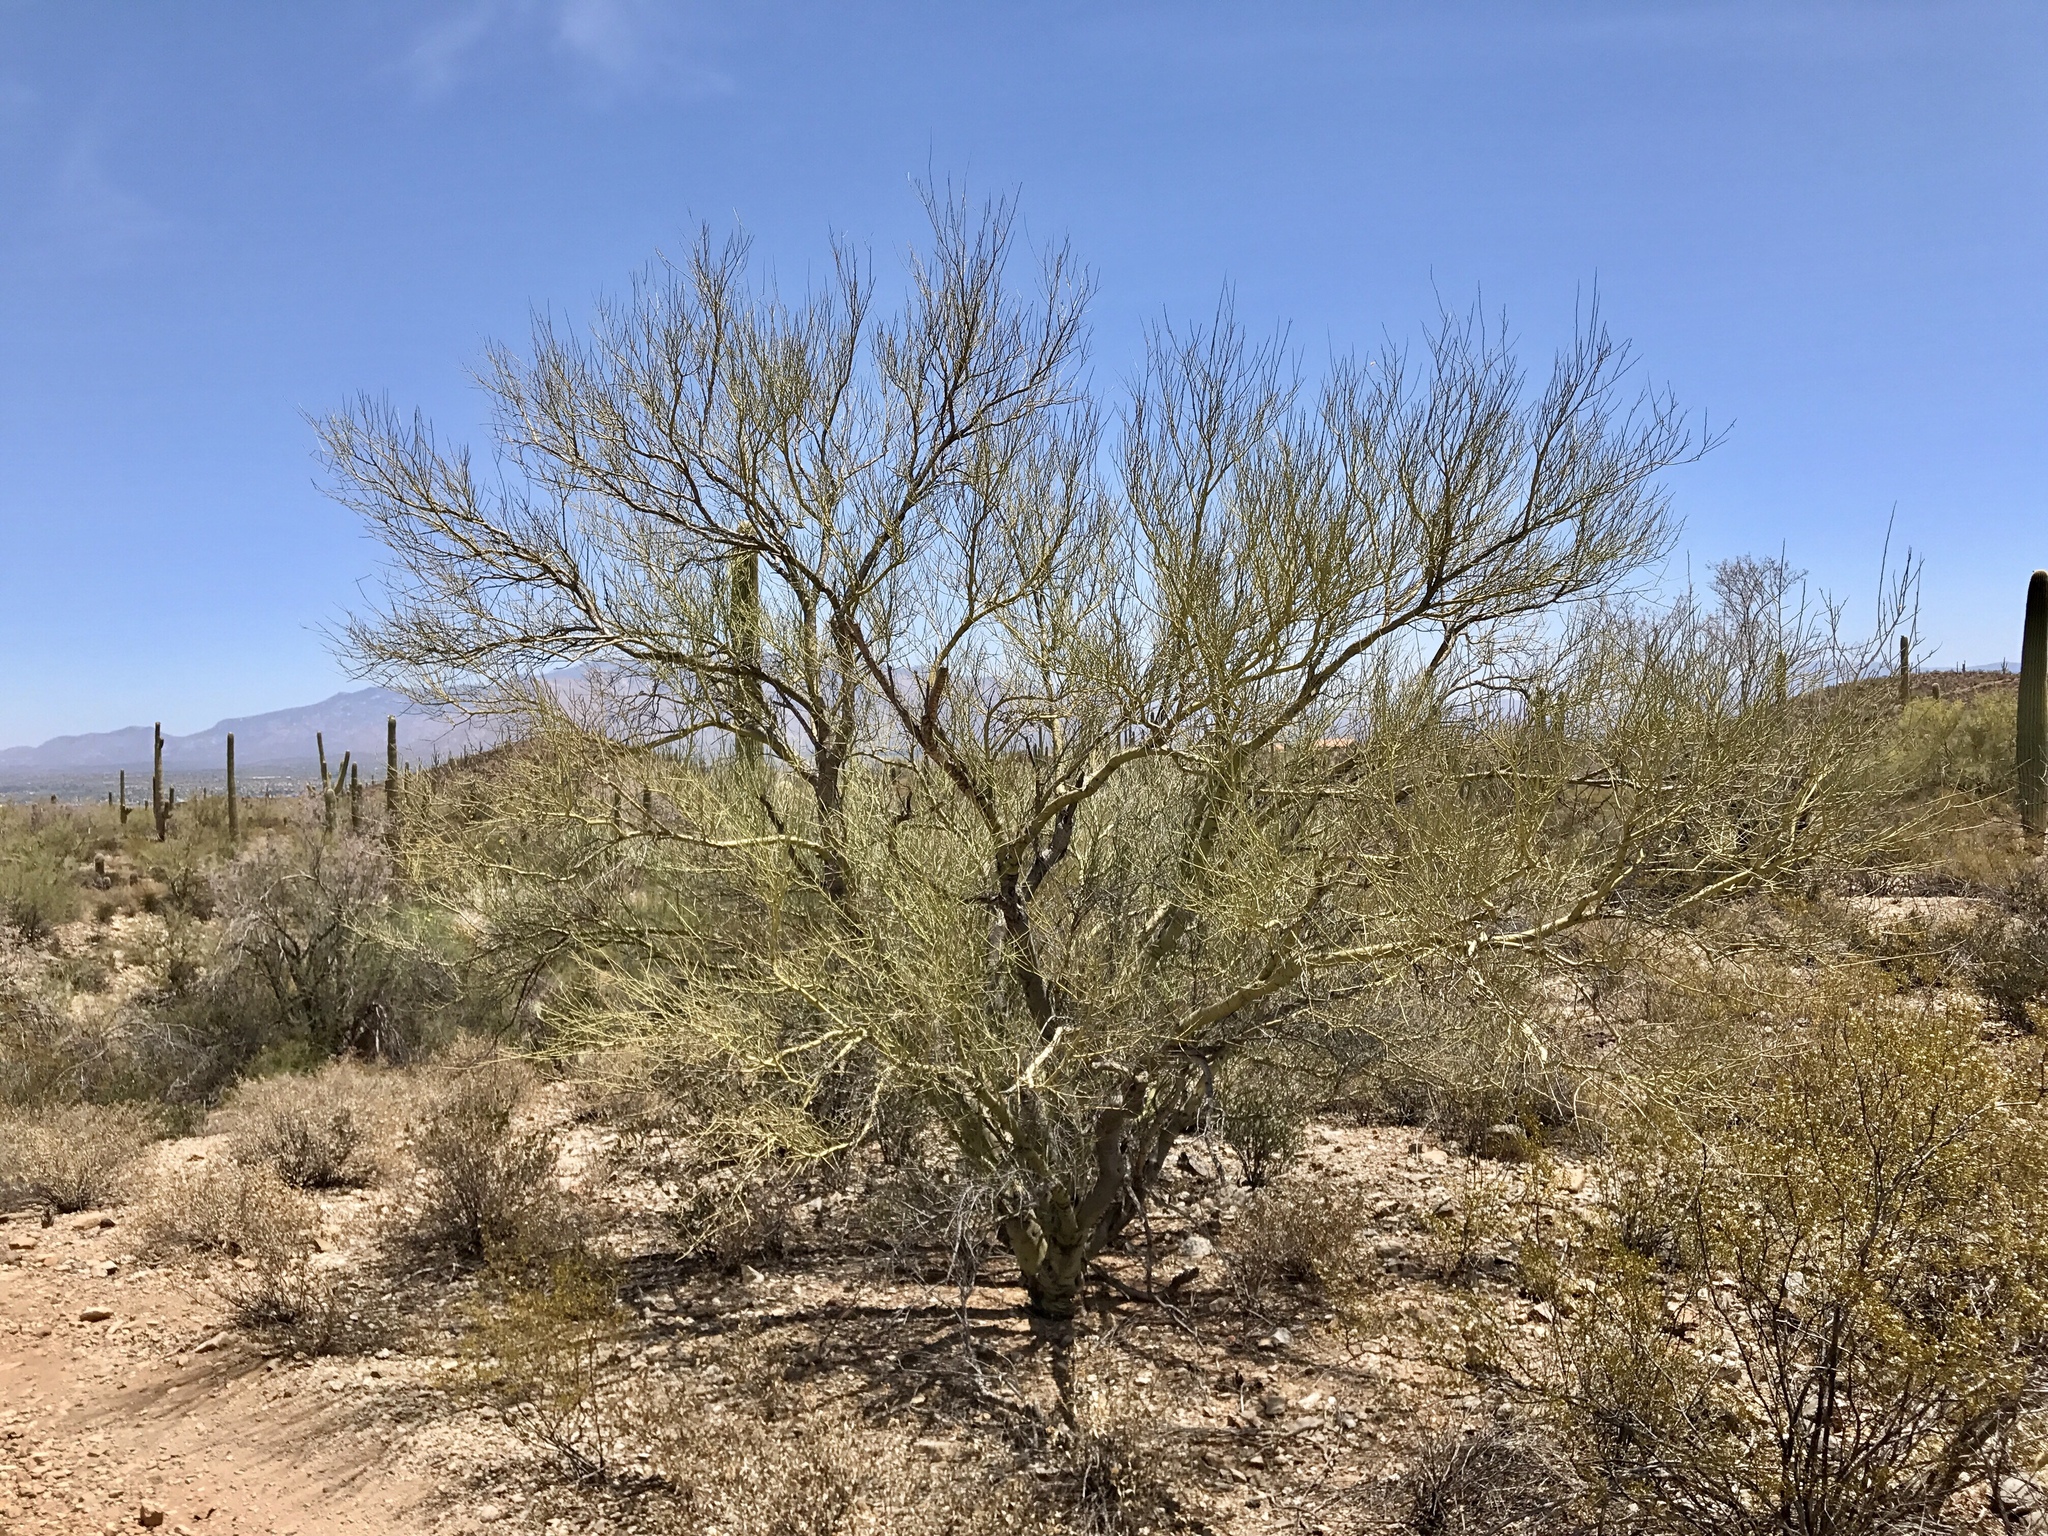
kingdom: Plantae
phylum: Tracheophyta
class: Magnoliopsida
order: Fabales
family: Fabaceae
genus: Parkinsonia
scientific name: Parkinsonia microphylla
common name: Yellow paloverde
